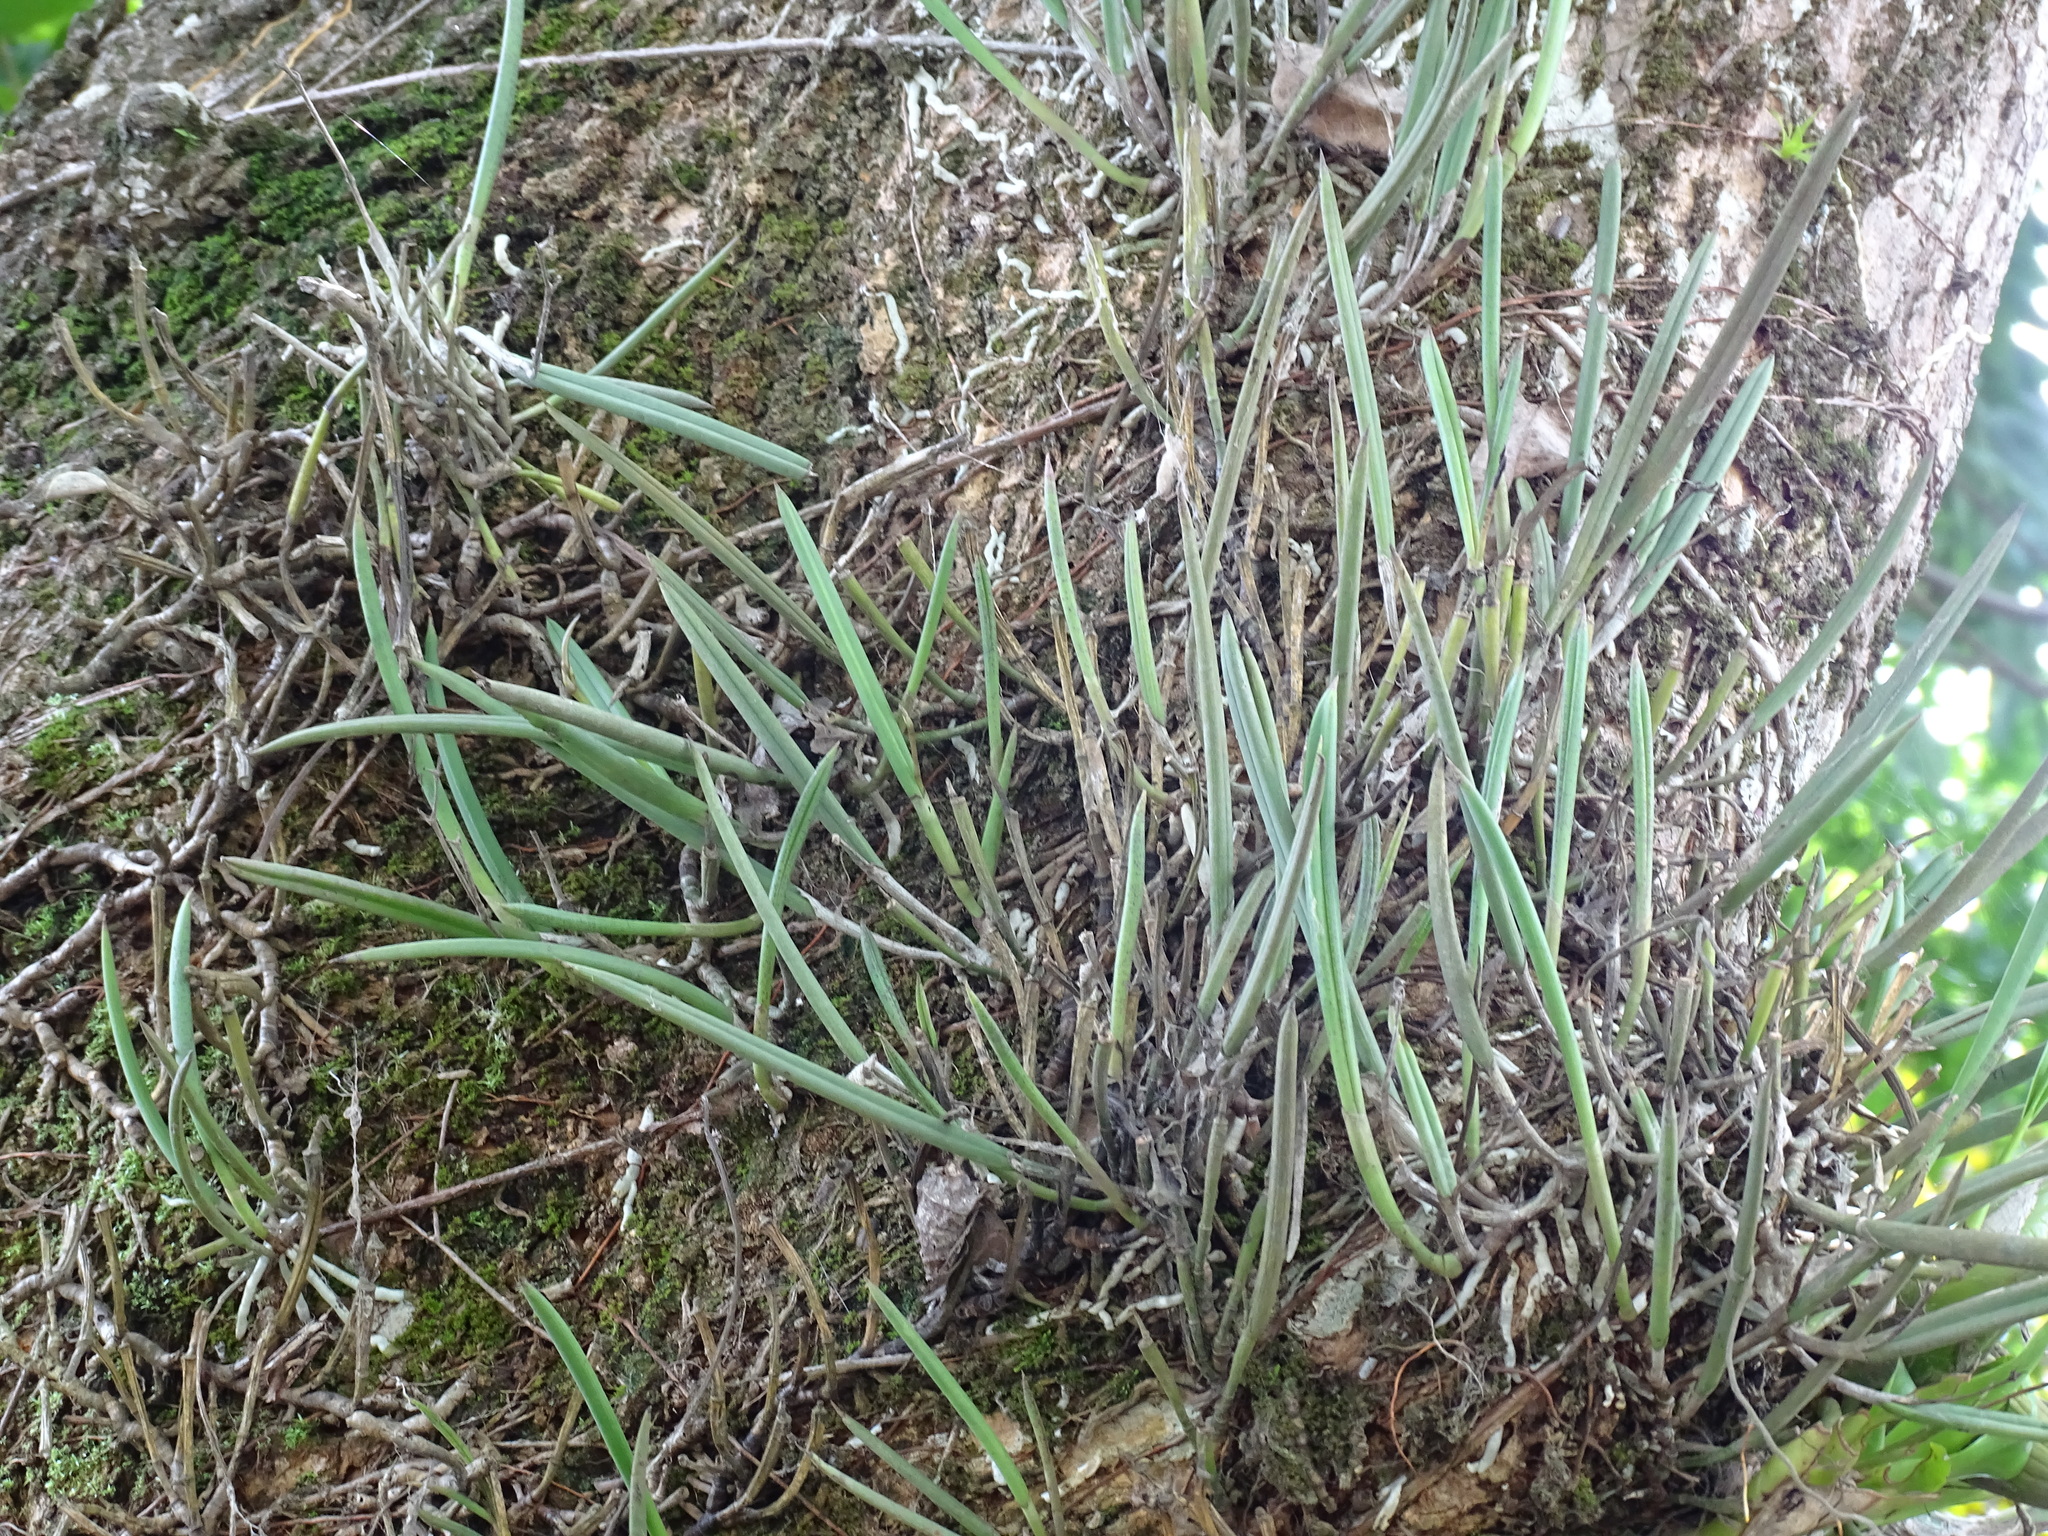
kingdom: Plantae
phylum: Tracheophyta
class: Liliopsida
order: Asparagales
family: Orchidaceae
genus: Brassavola
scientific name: Brassavola nodosa
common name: Lady of the night
